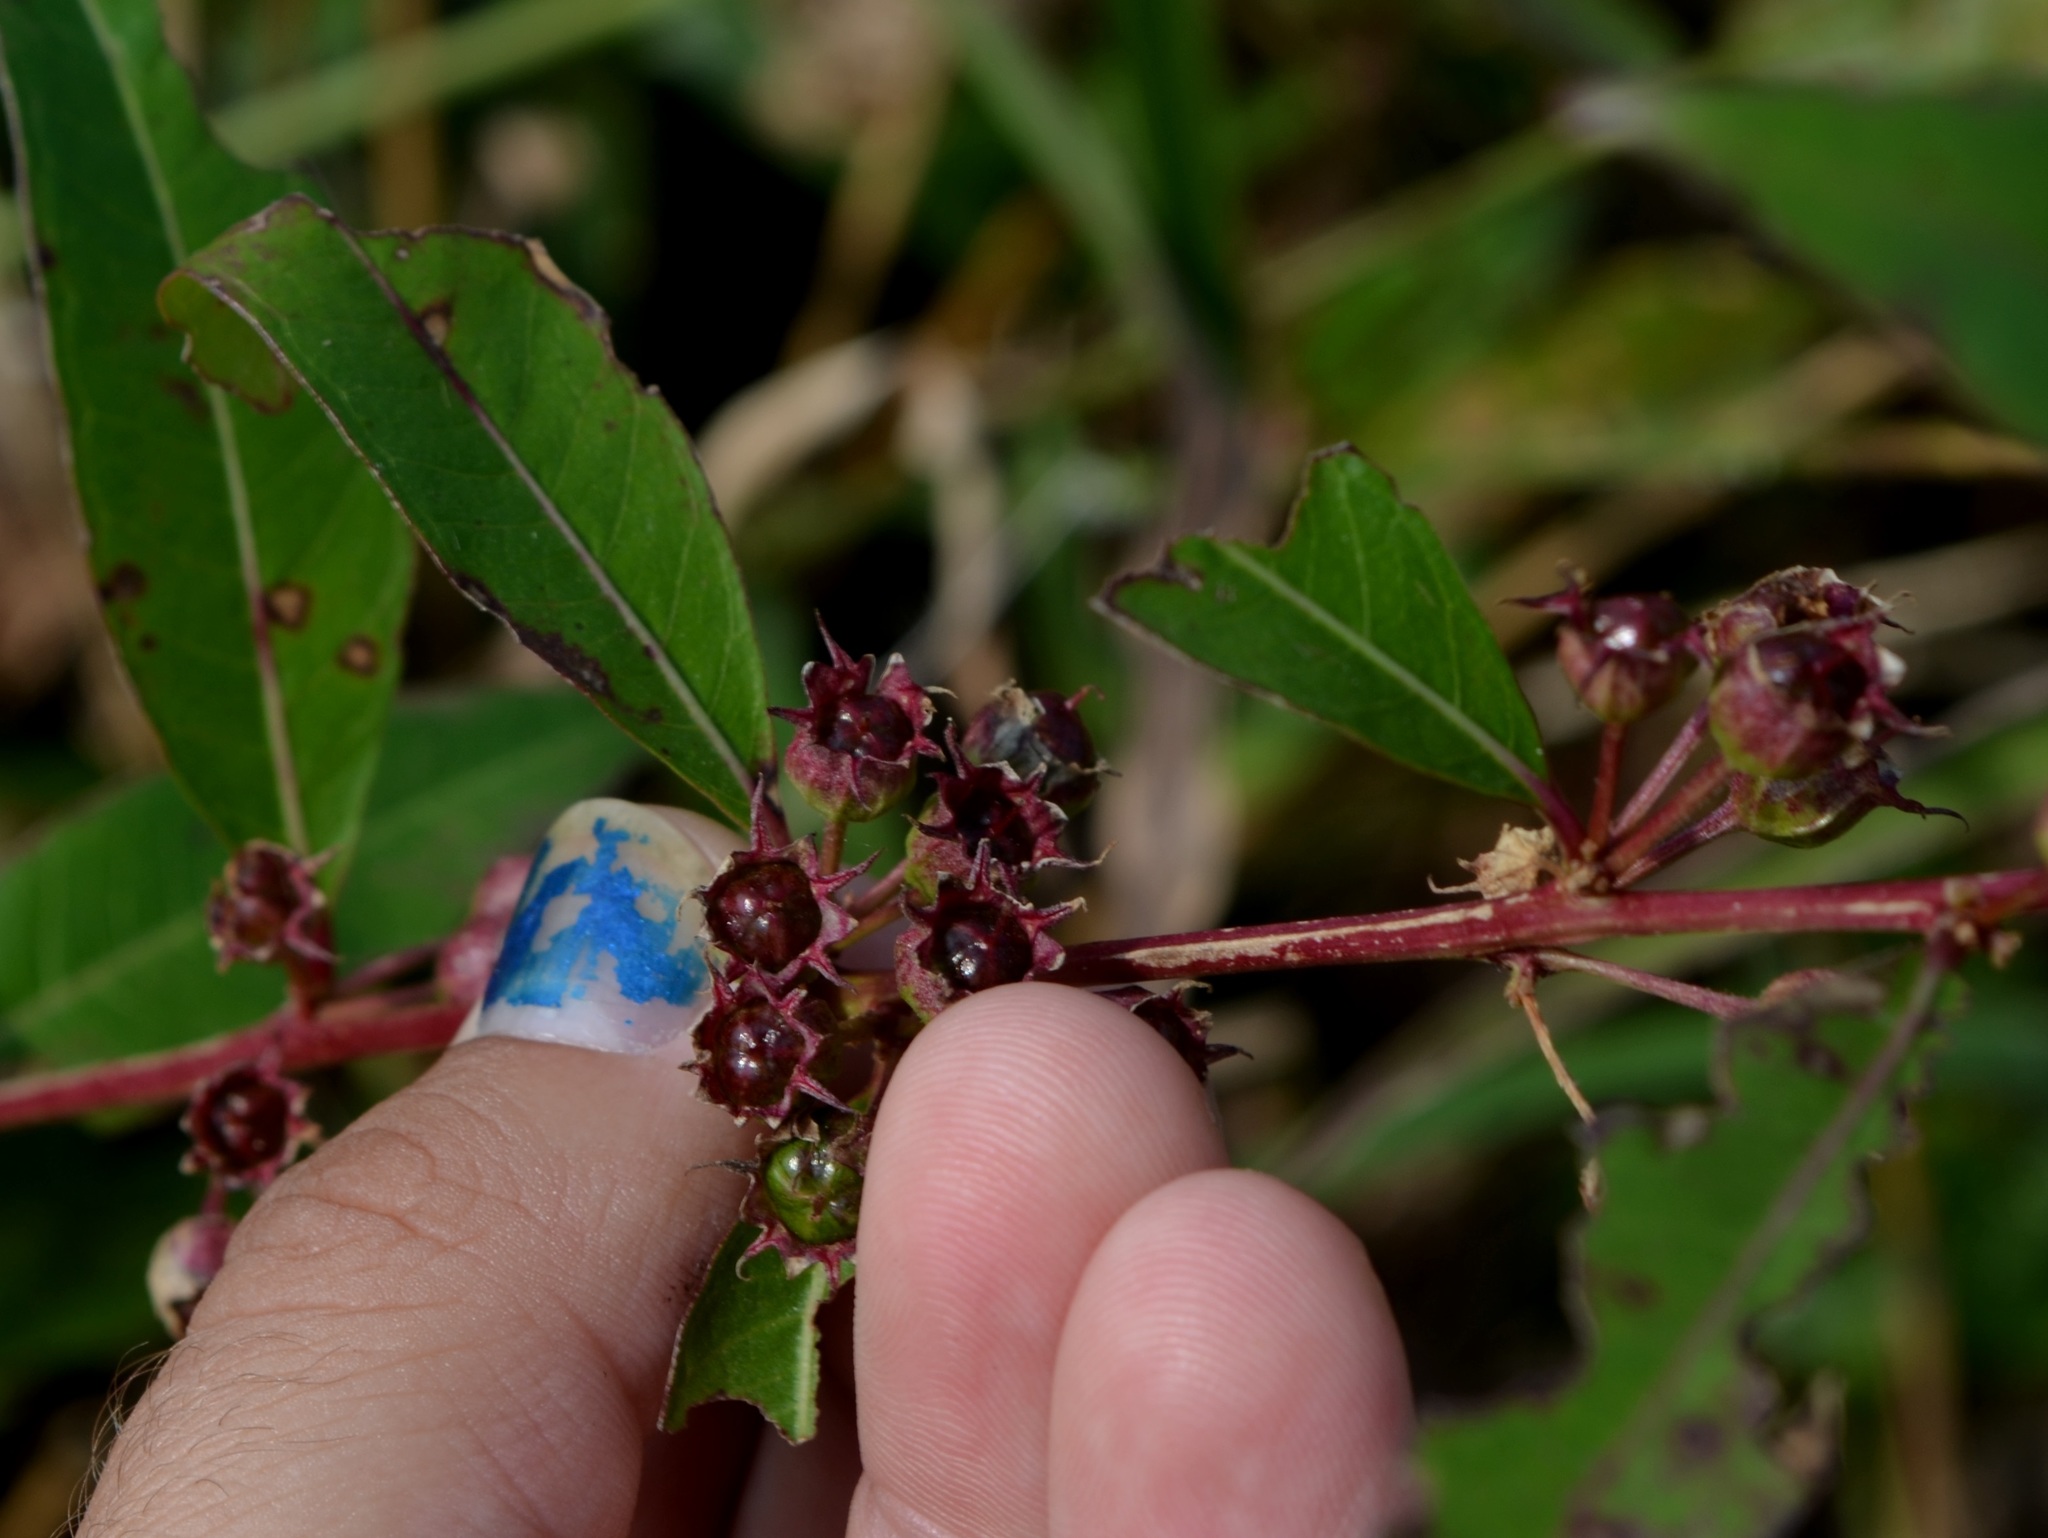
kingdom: Plantae
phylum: Tracheophyta
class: Magnoliopsida
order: Myrtales
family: Lythraceae
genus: Decodon
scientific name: Decodon verticillatus
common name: Hairy swamp loosestrife
